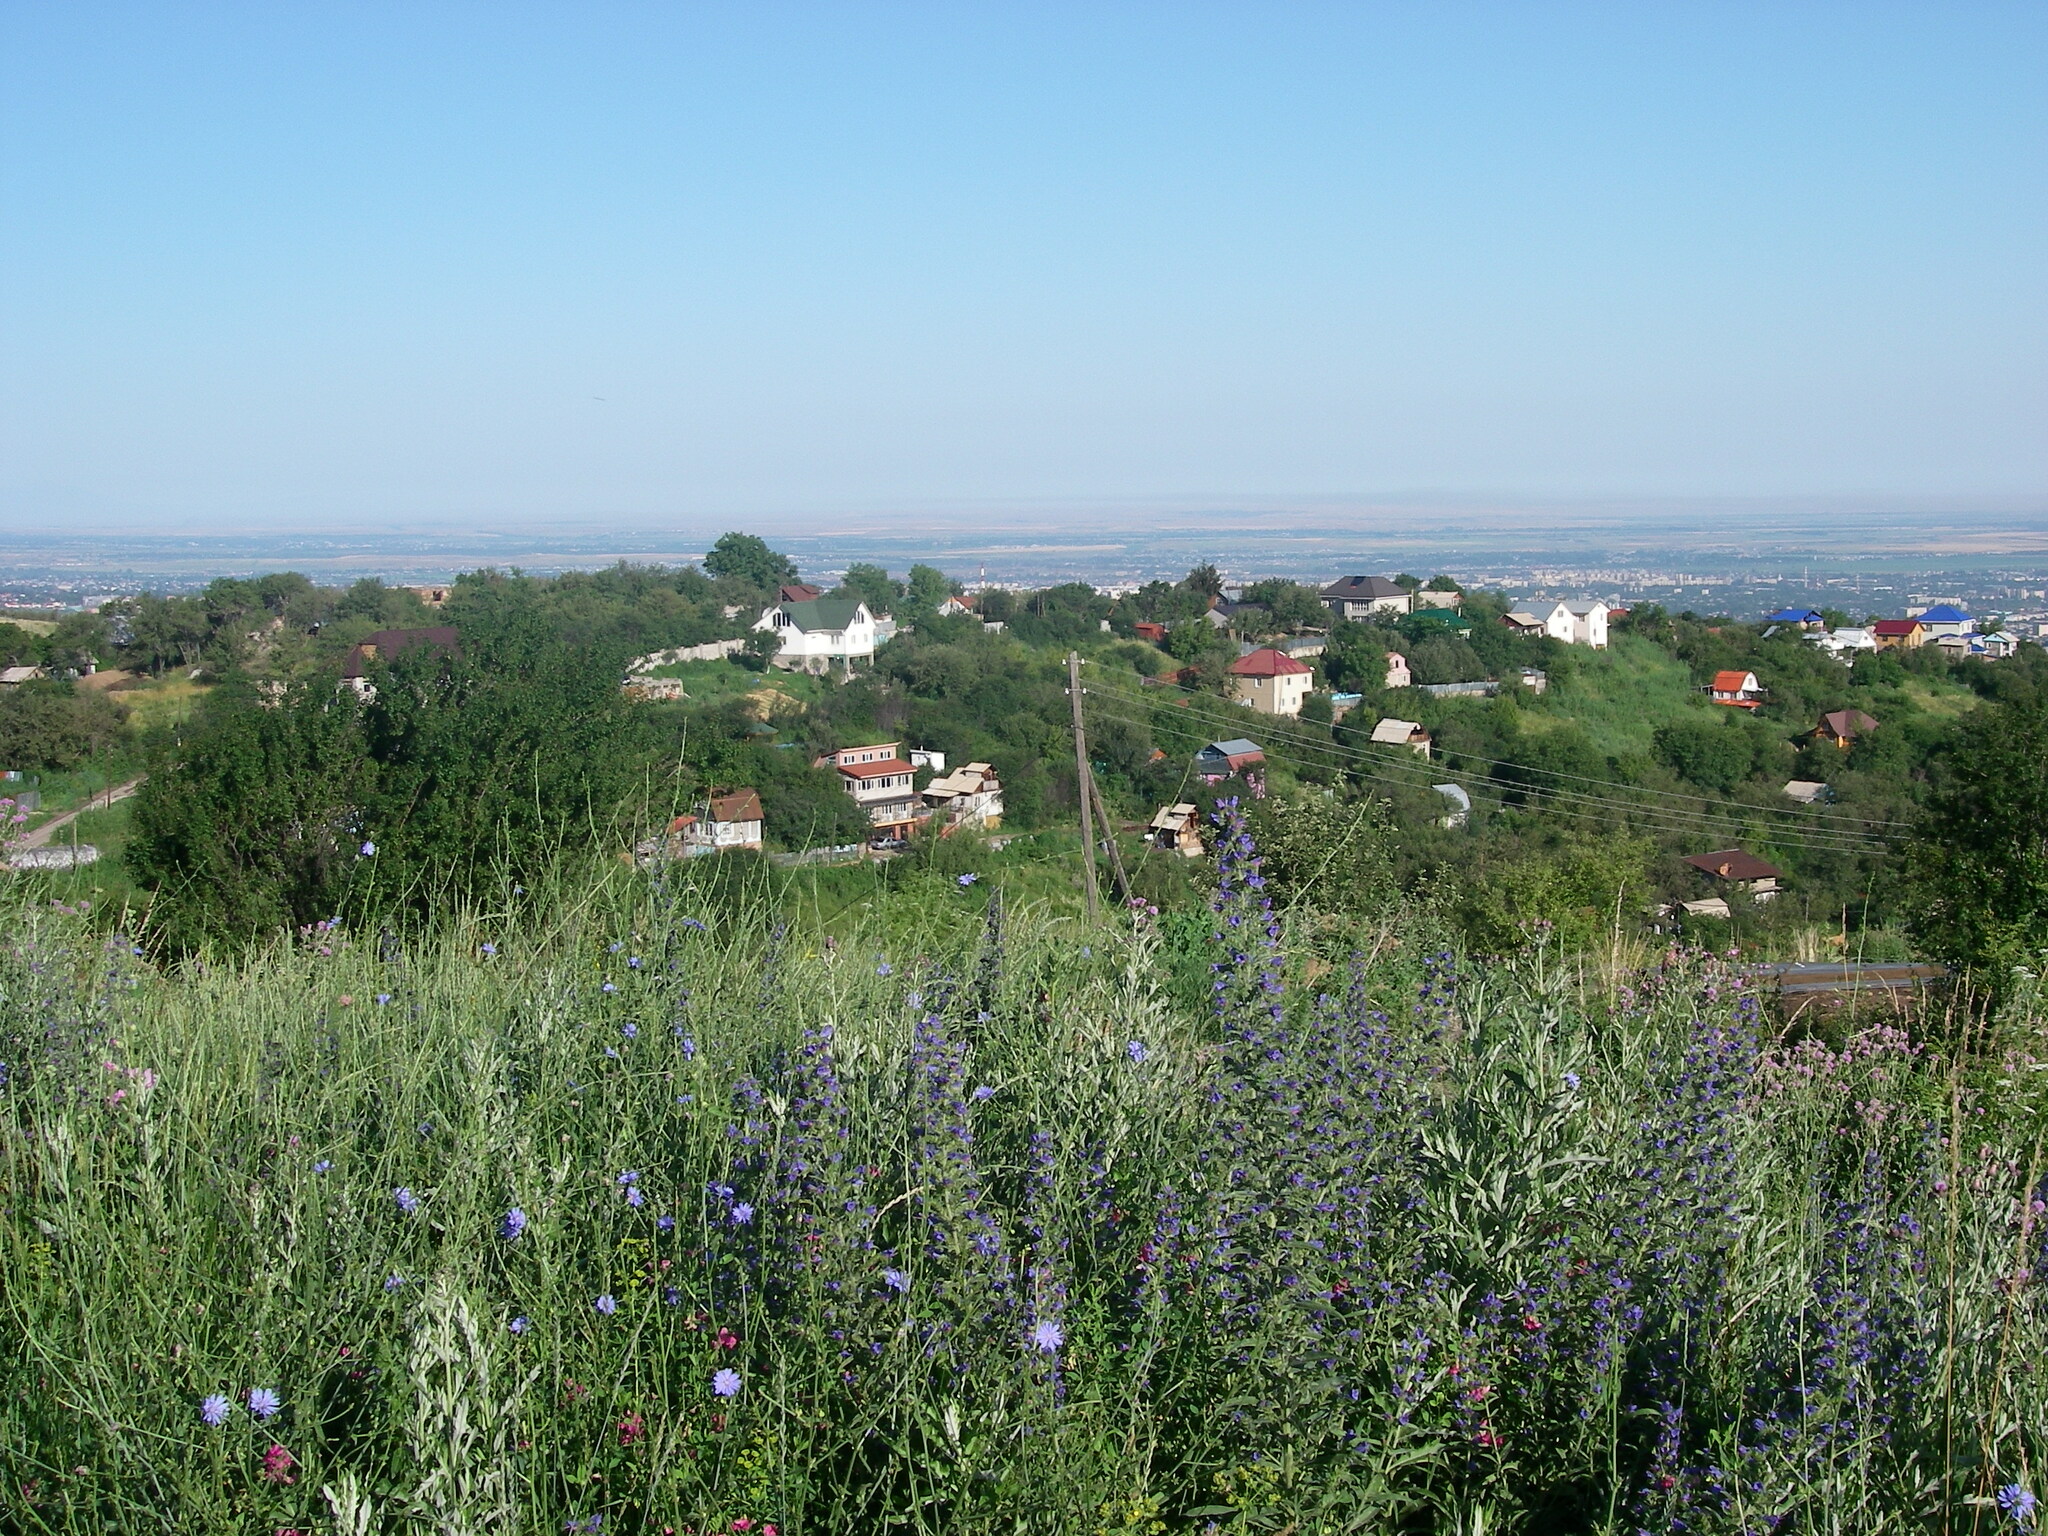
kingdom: Plantae
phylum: Tracheophyta
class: Magnoliopsida
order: Boraginales
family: Boraginaceae
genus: Echium
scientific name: Echium vulgare
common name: Common viper's bugloss
